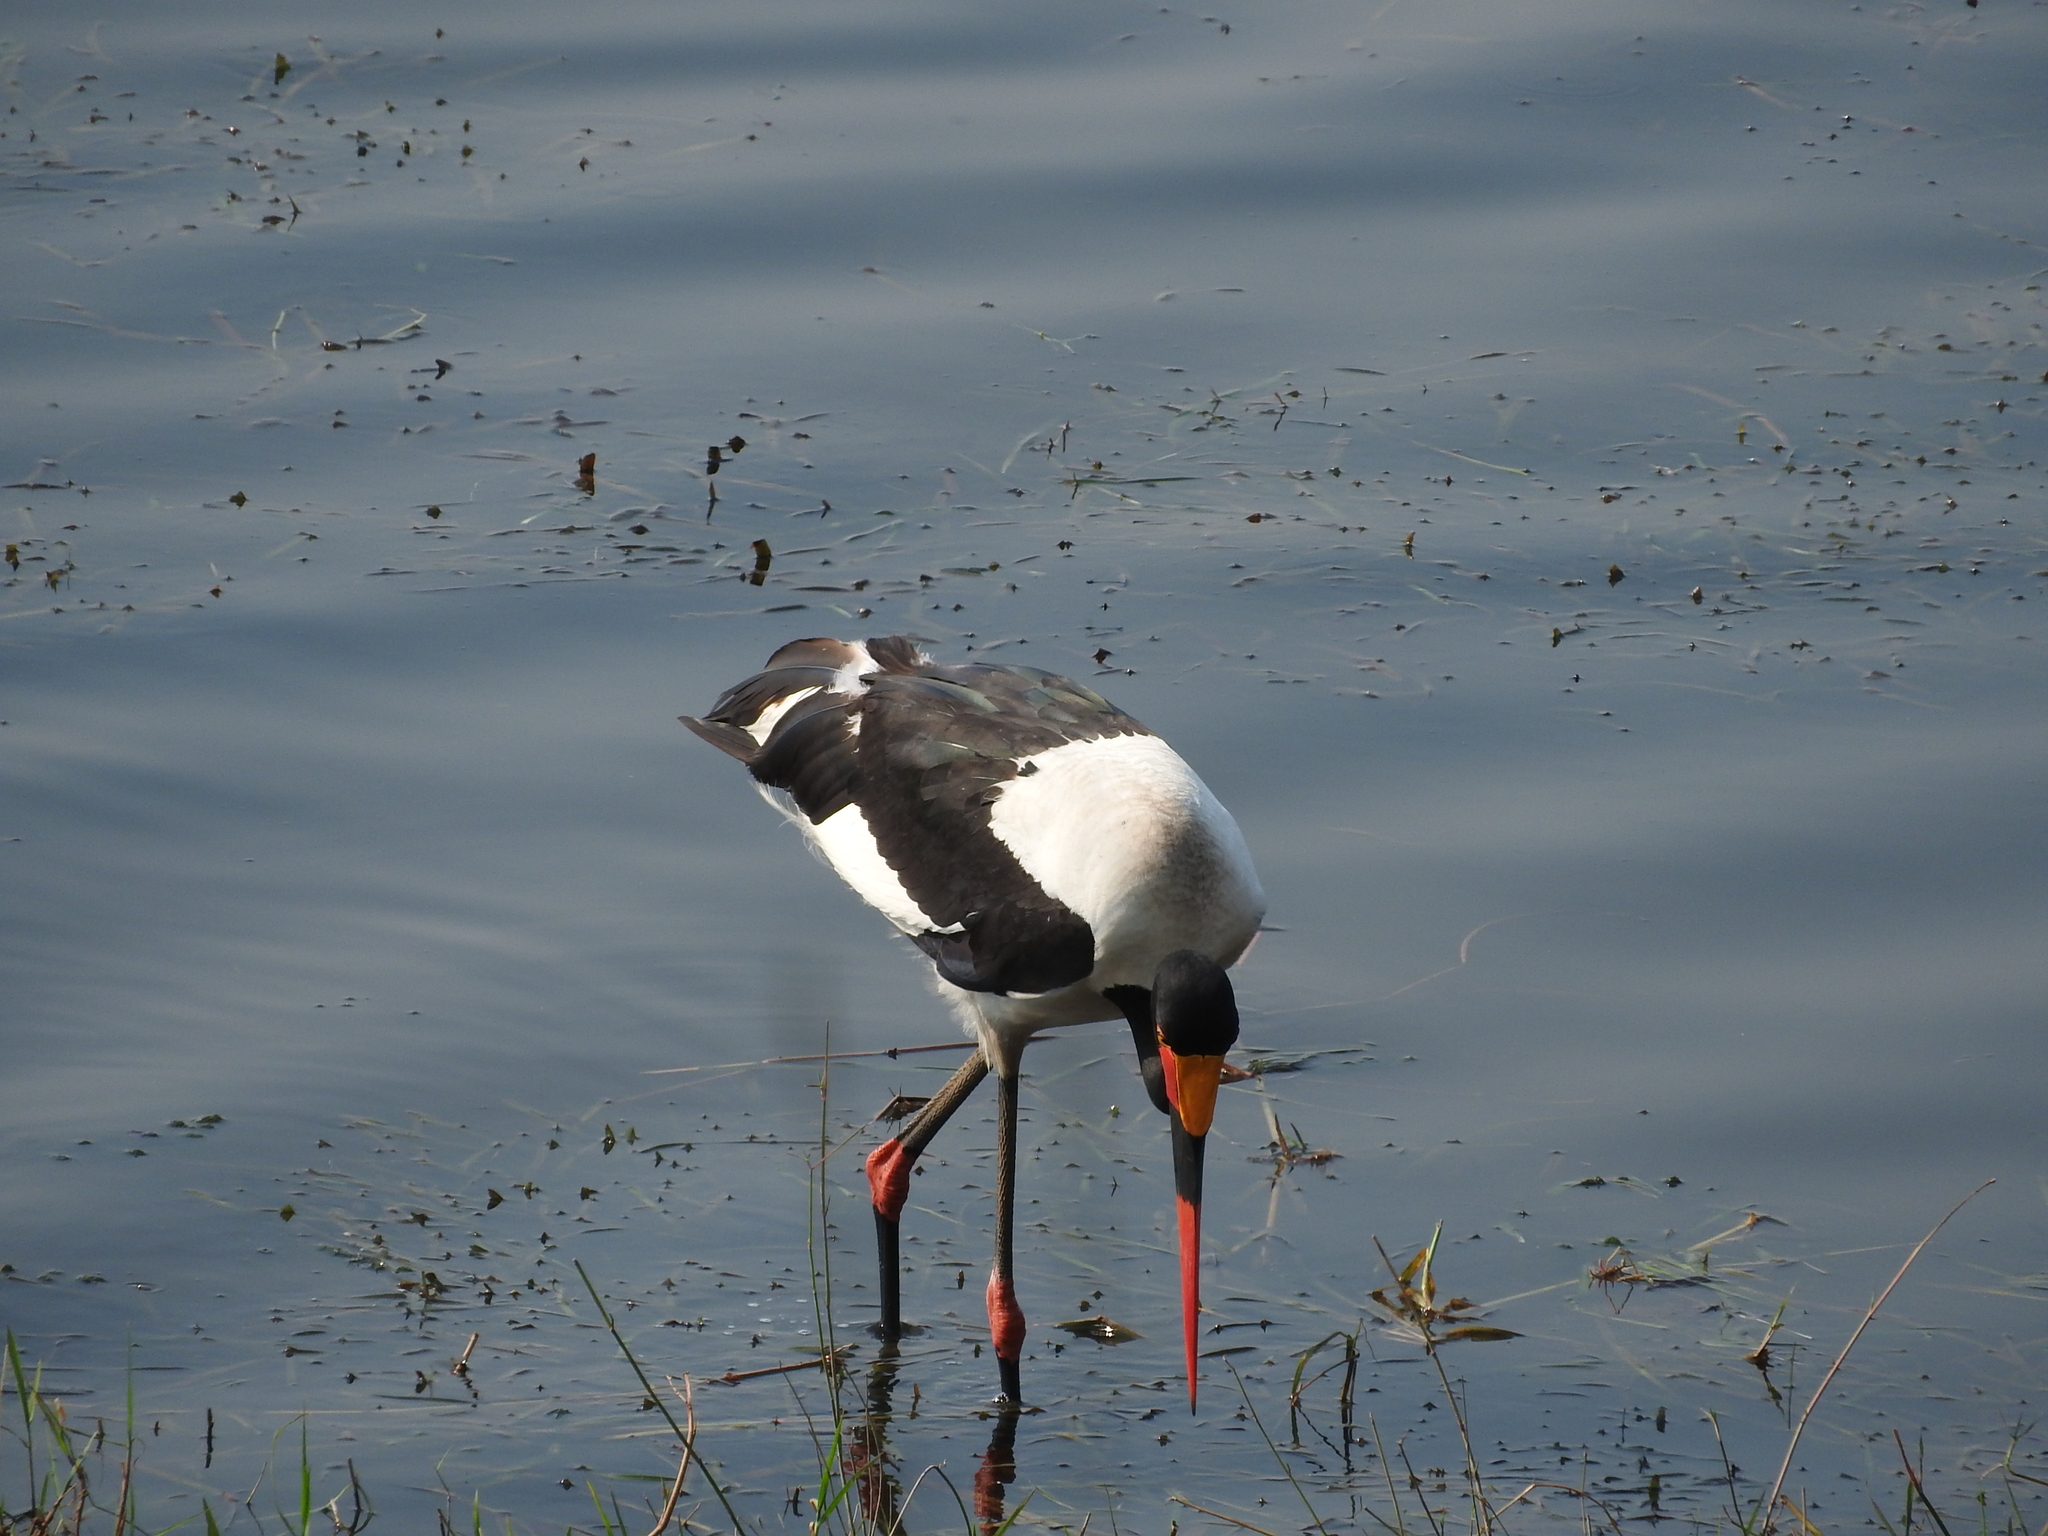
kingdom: Animalia
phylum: Chordata
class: Aves
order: Ciconiiformes
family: Ciconiidae
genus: Ephippiorhynchus
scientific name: Ephippiorhynchus senegalensis
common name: Saddle-billed stork
